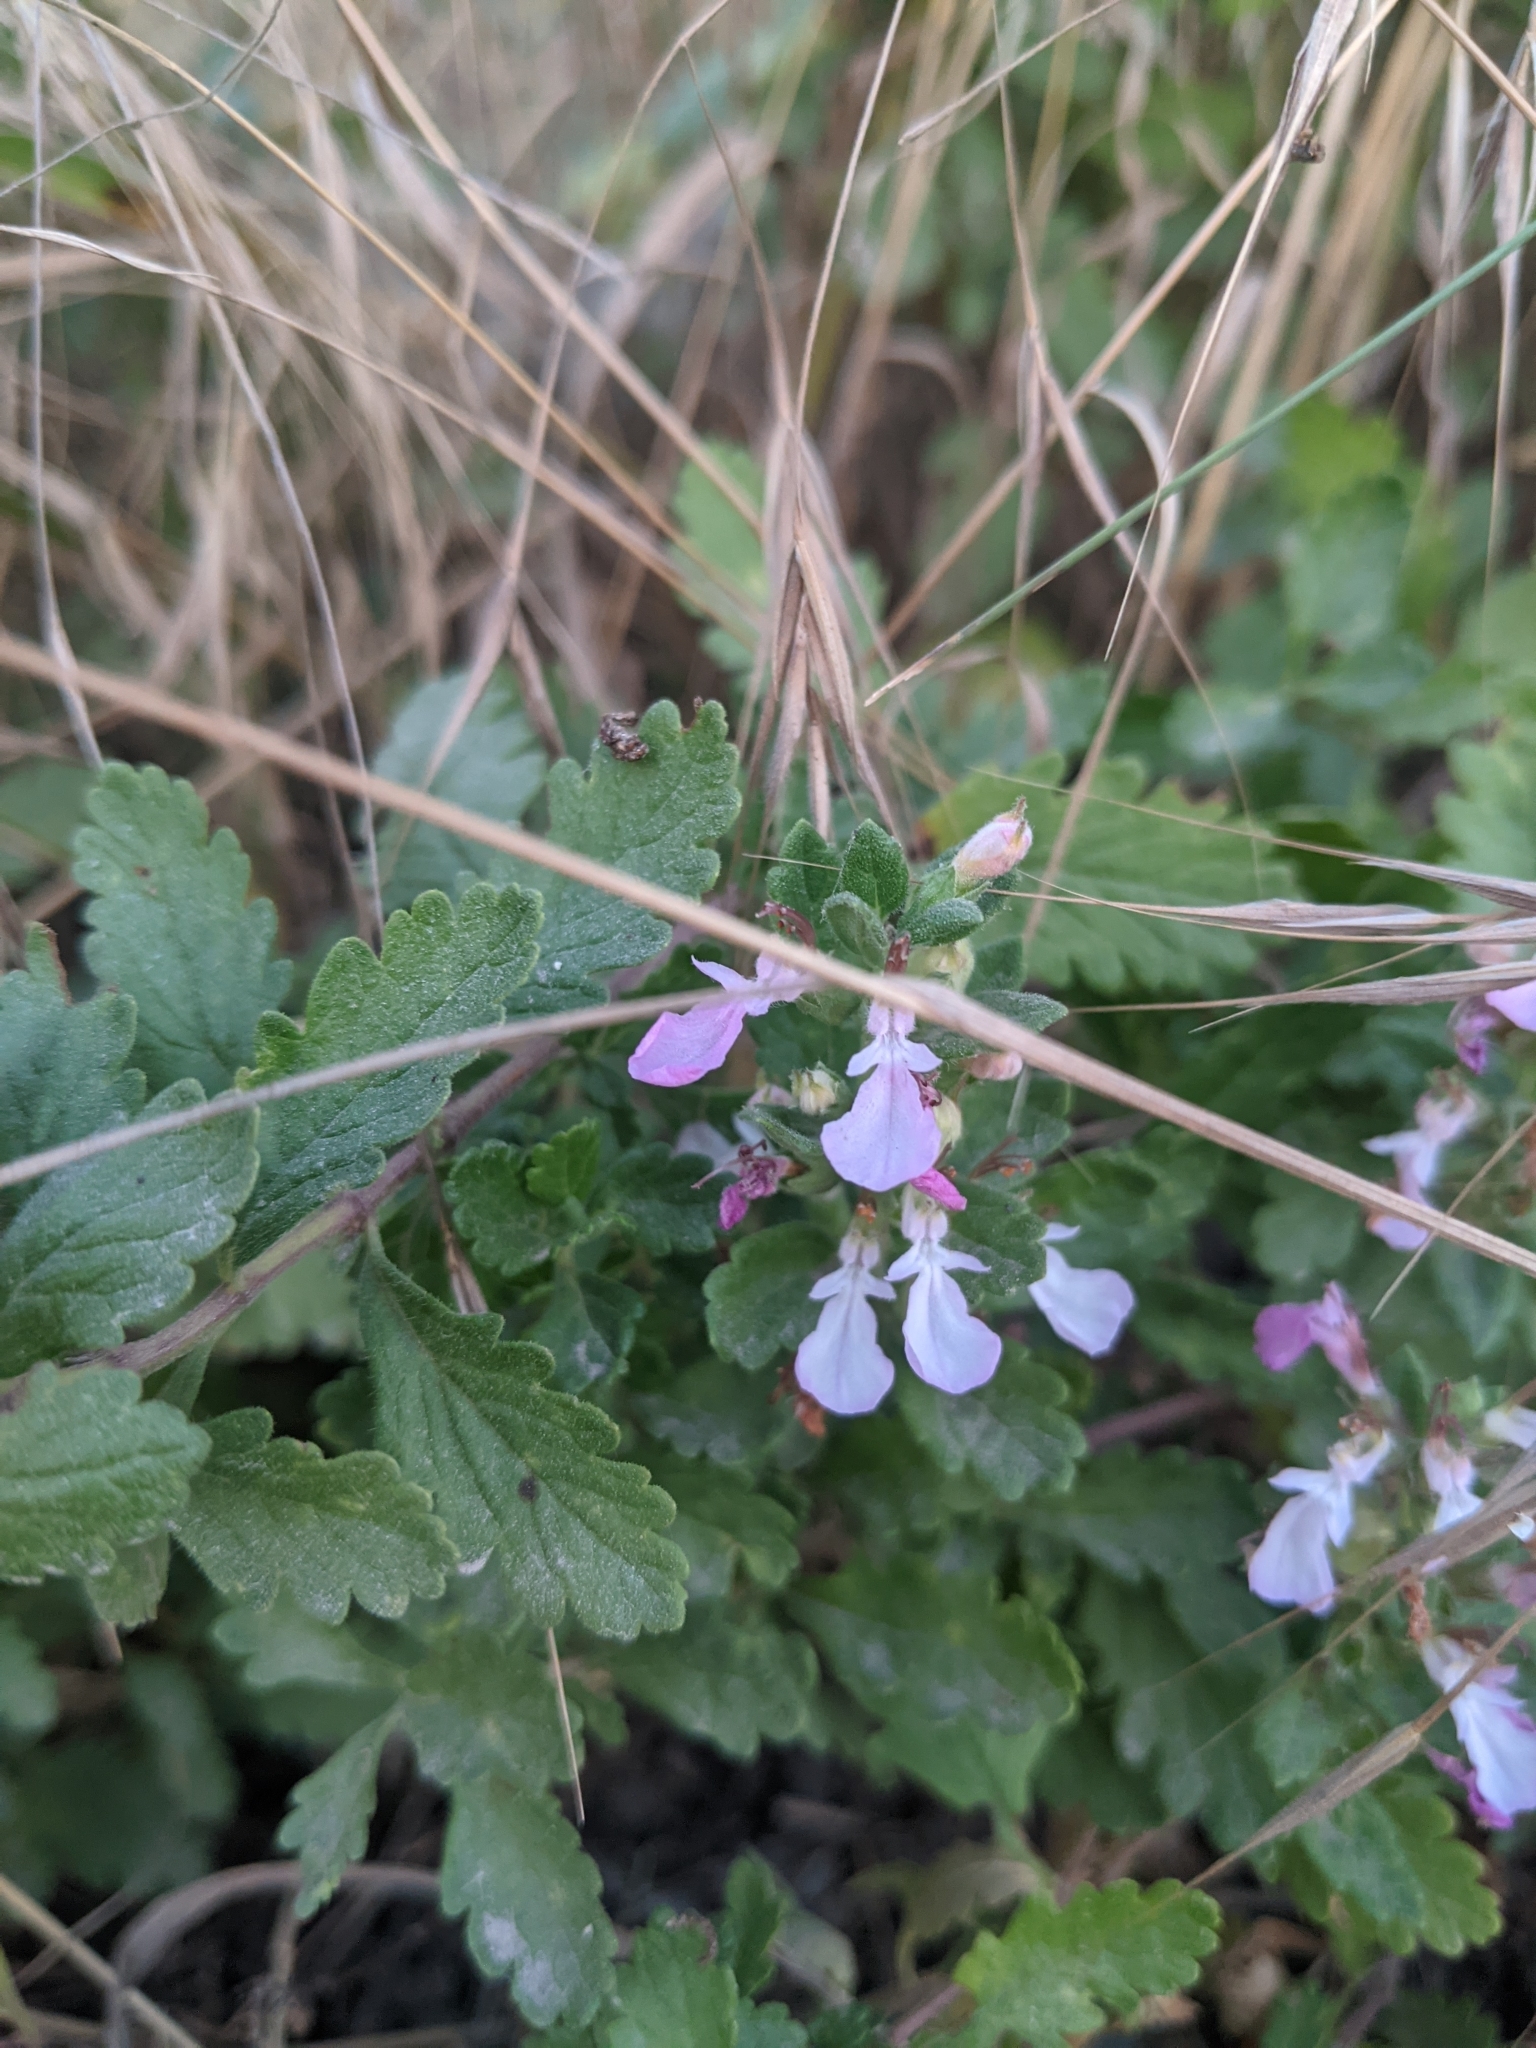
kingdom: Plantae
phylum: Tracheophyta
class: Magnoliopsida
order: Lamiales
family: Lamiaceae
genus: Teucrium
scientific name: Teucrium chamaedrys
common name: Wall germander
